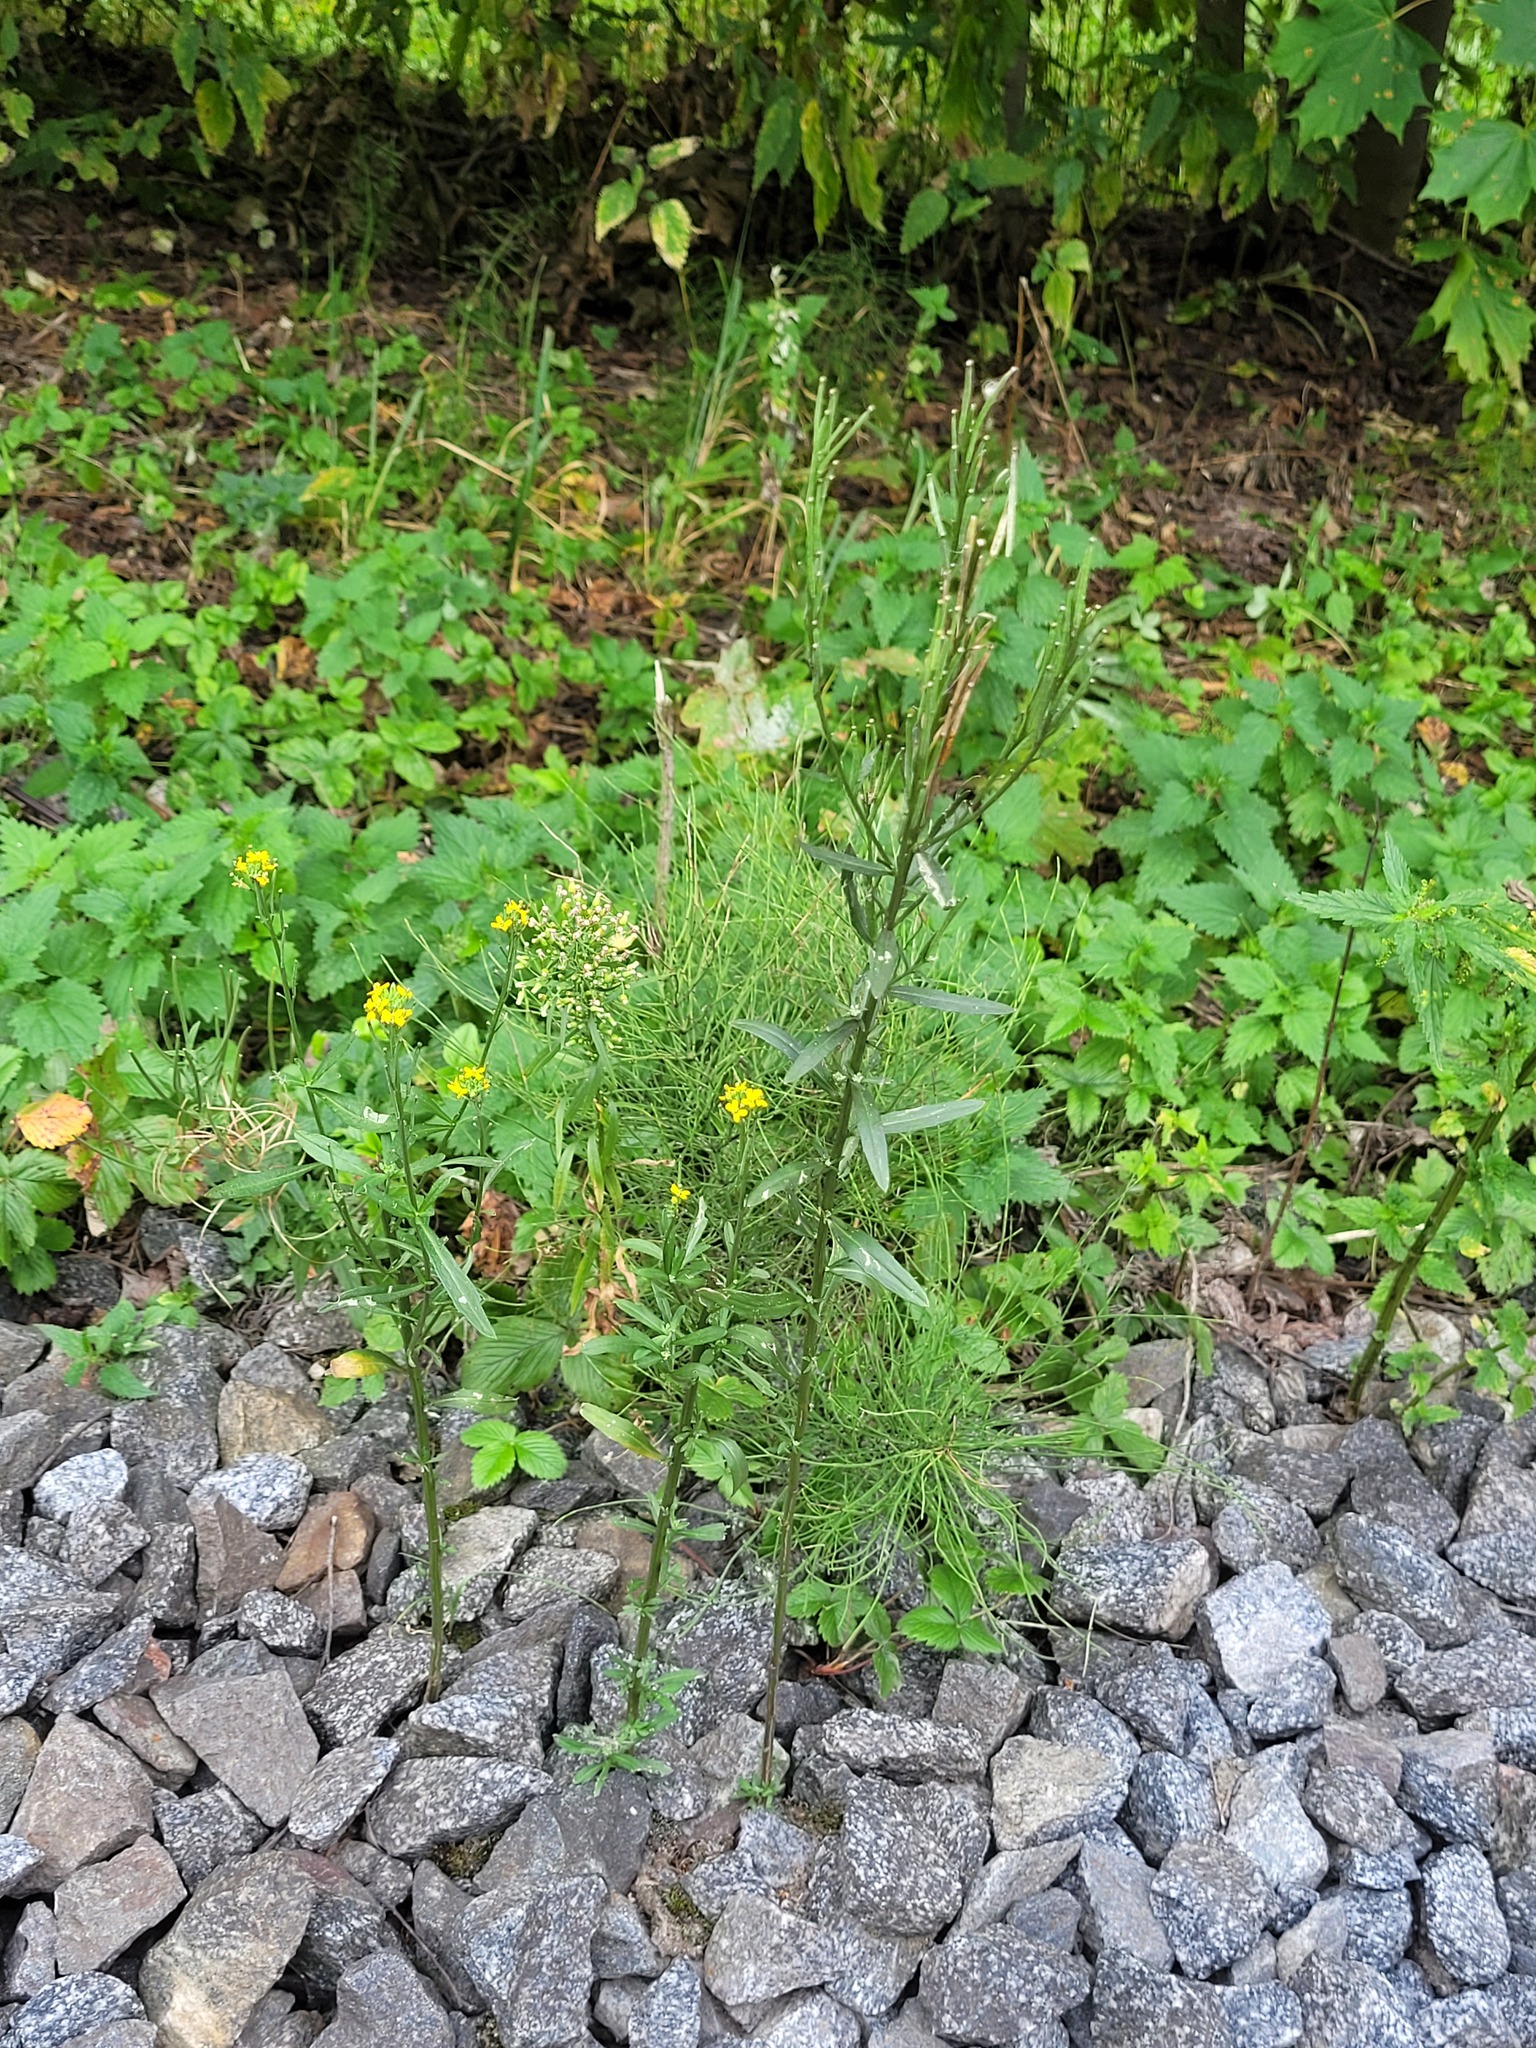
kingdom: Plantae
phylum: Tracheophyta
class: Magnoliopsida
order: Brassicales
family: Brassicaceae
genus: Erysimum
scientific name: Erysimum hieraciifolium
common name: European wallflower
